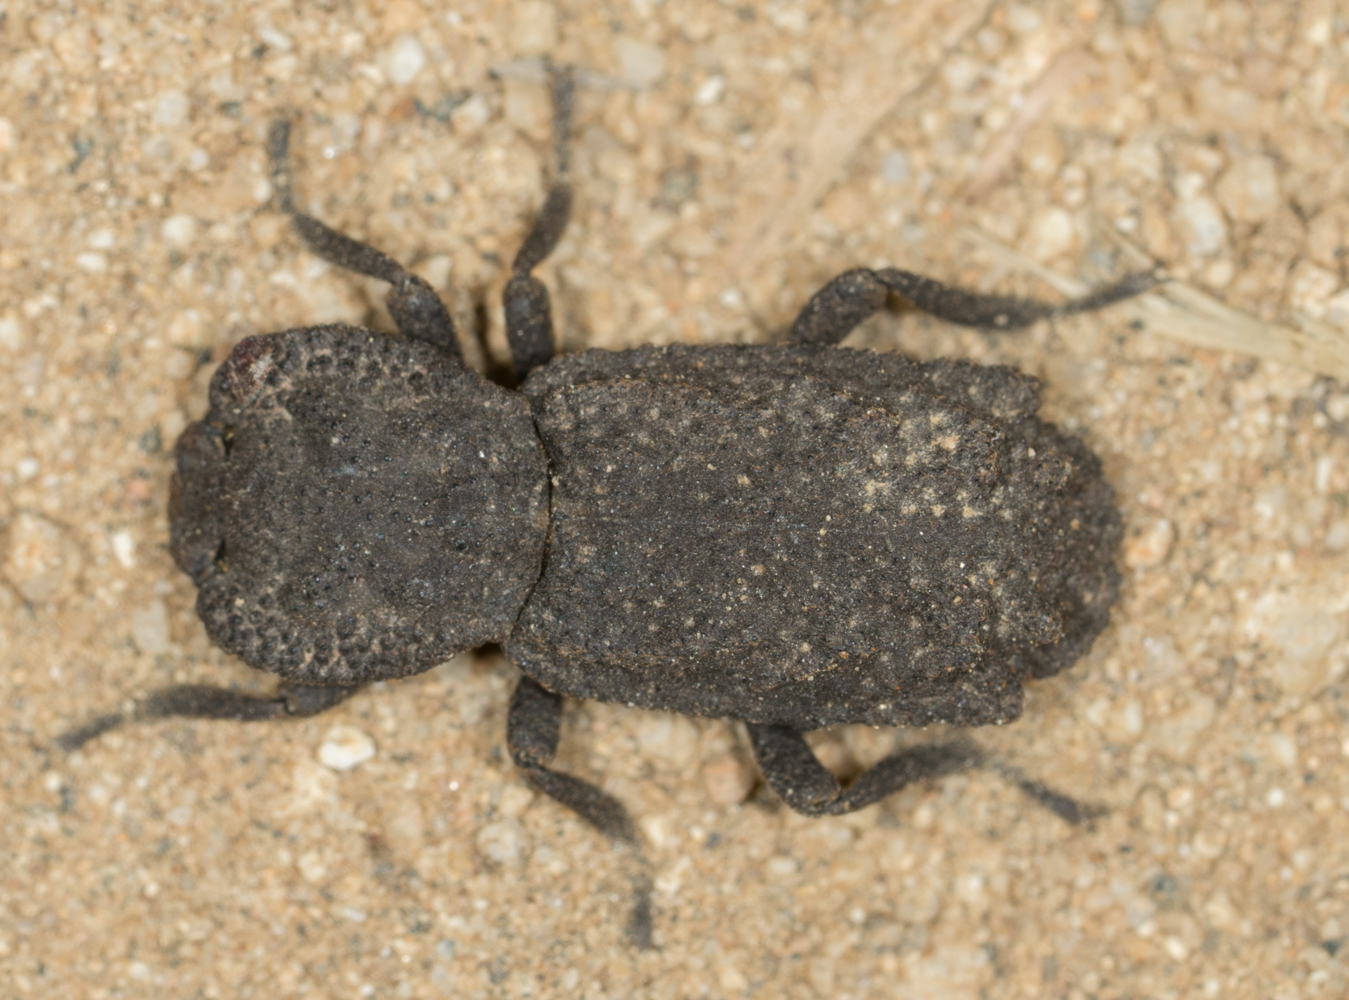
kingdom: Animalia
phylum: Arthropoda
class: Insecta
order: Coleoptera
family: Zopheridae
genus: Phloeodes
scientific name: Phloeodes plicatus
